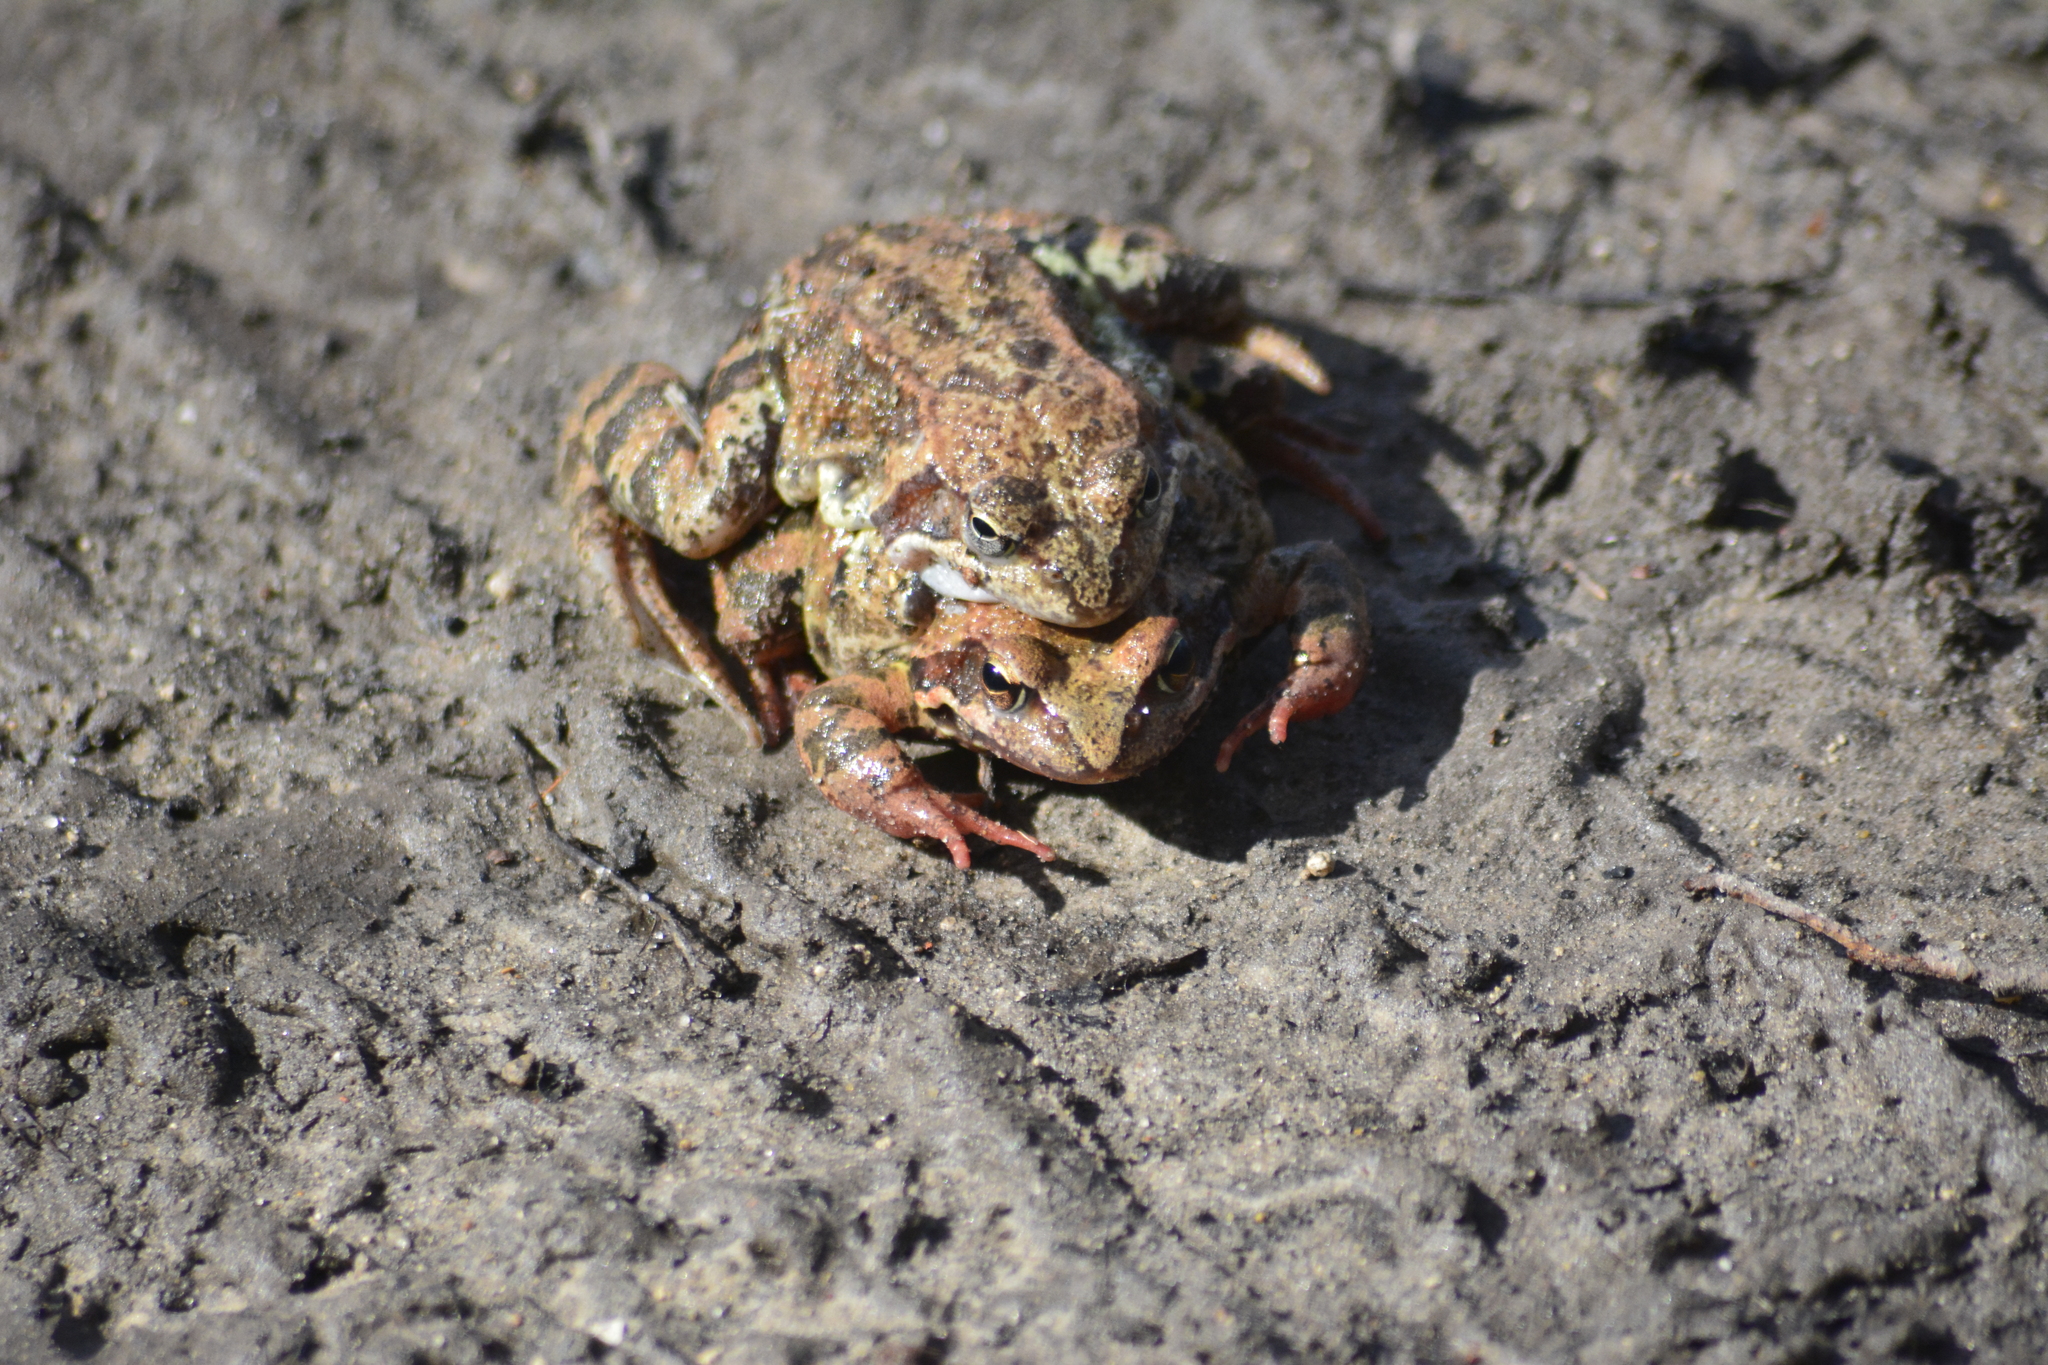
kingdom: Animalia
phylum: Chordata
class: Amphibia
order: Anura
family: Ranidae
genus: Rana
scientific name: Rana temporaria
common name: Common frog
